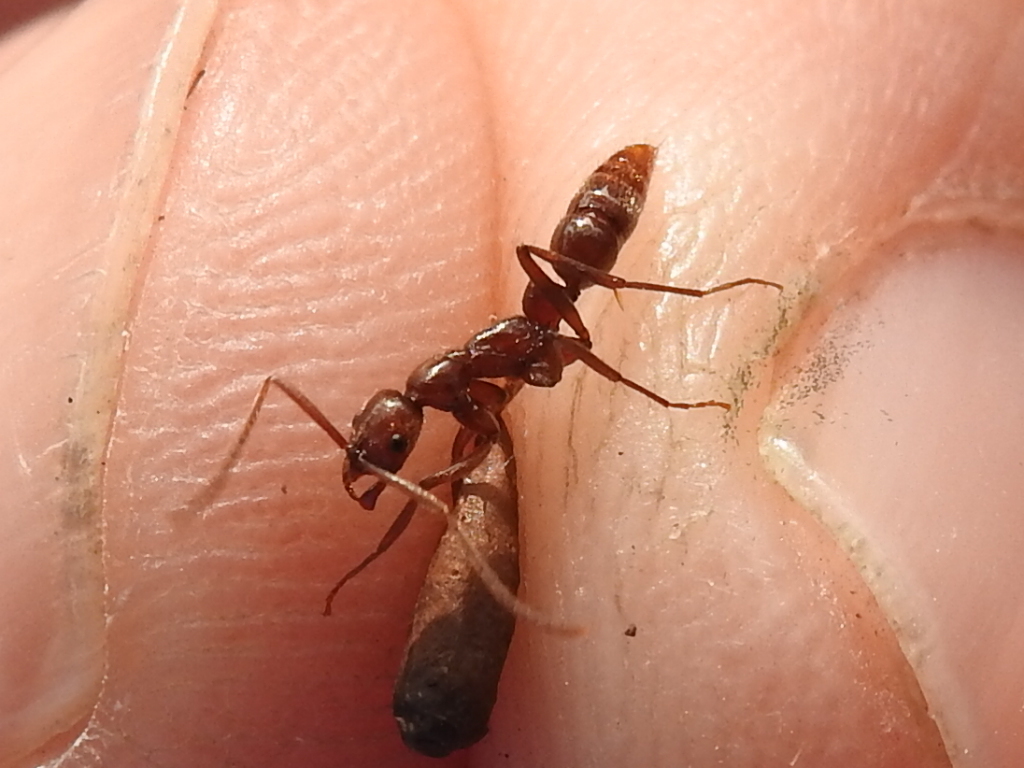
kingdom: Animalia
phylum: Arthropoda
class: Insecta
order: Hymenoptera
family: Formicidae
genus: Leptogenys
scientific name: Leptogenys elongata
